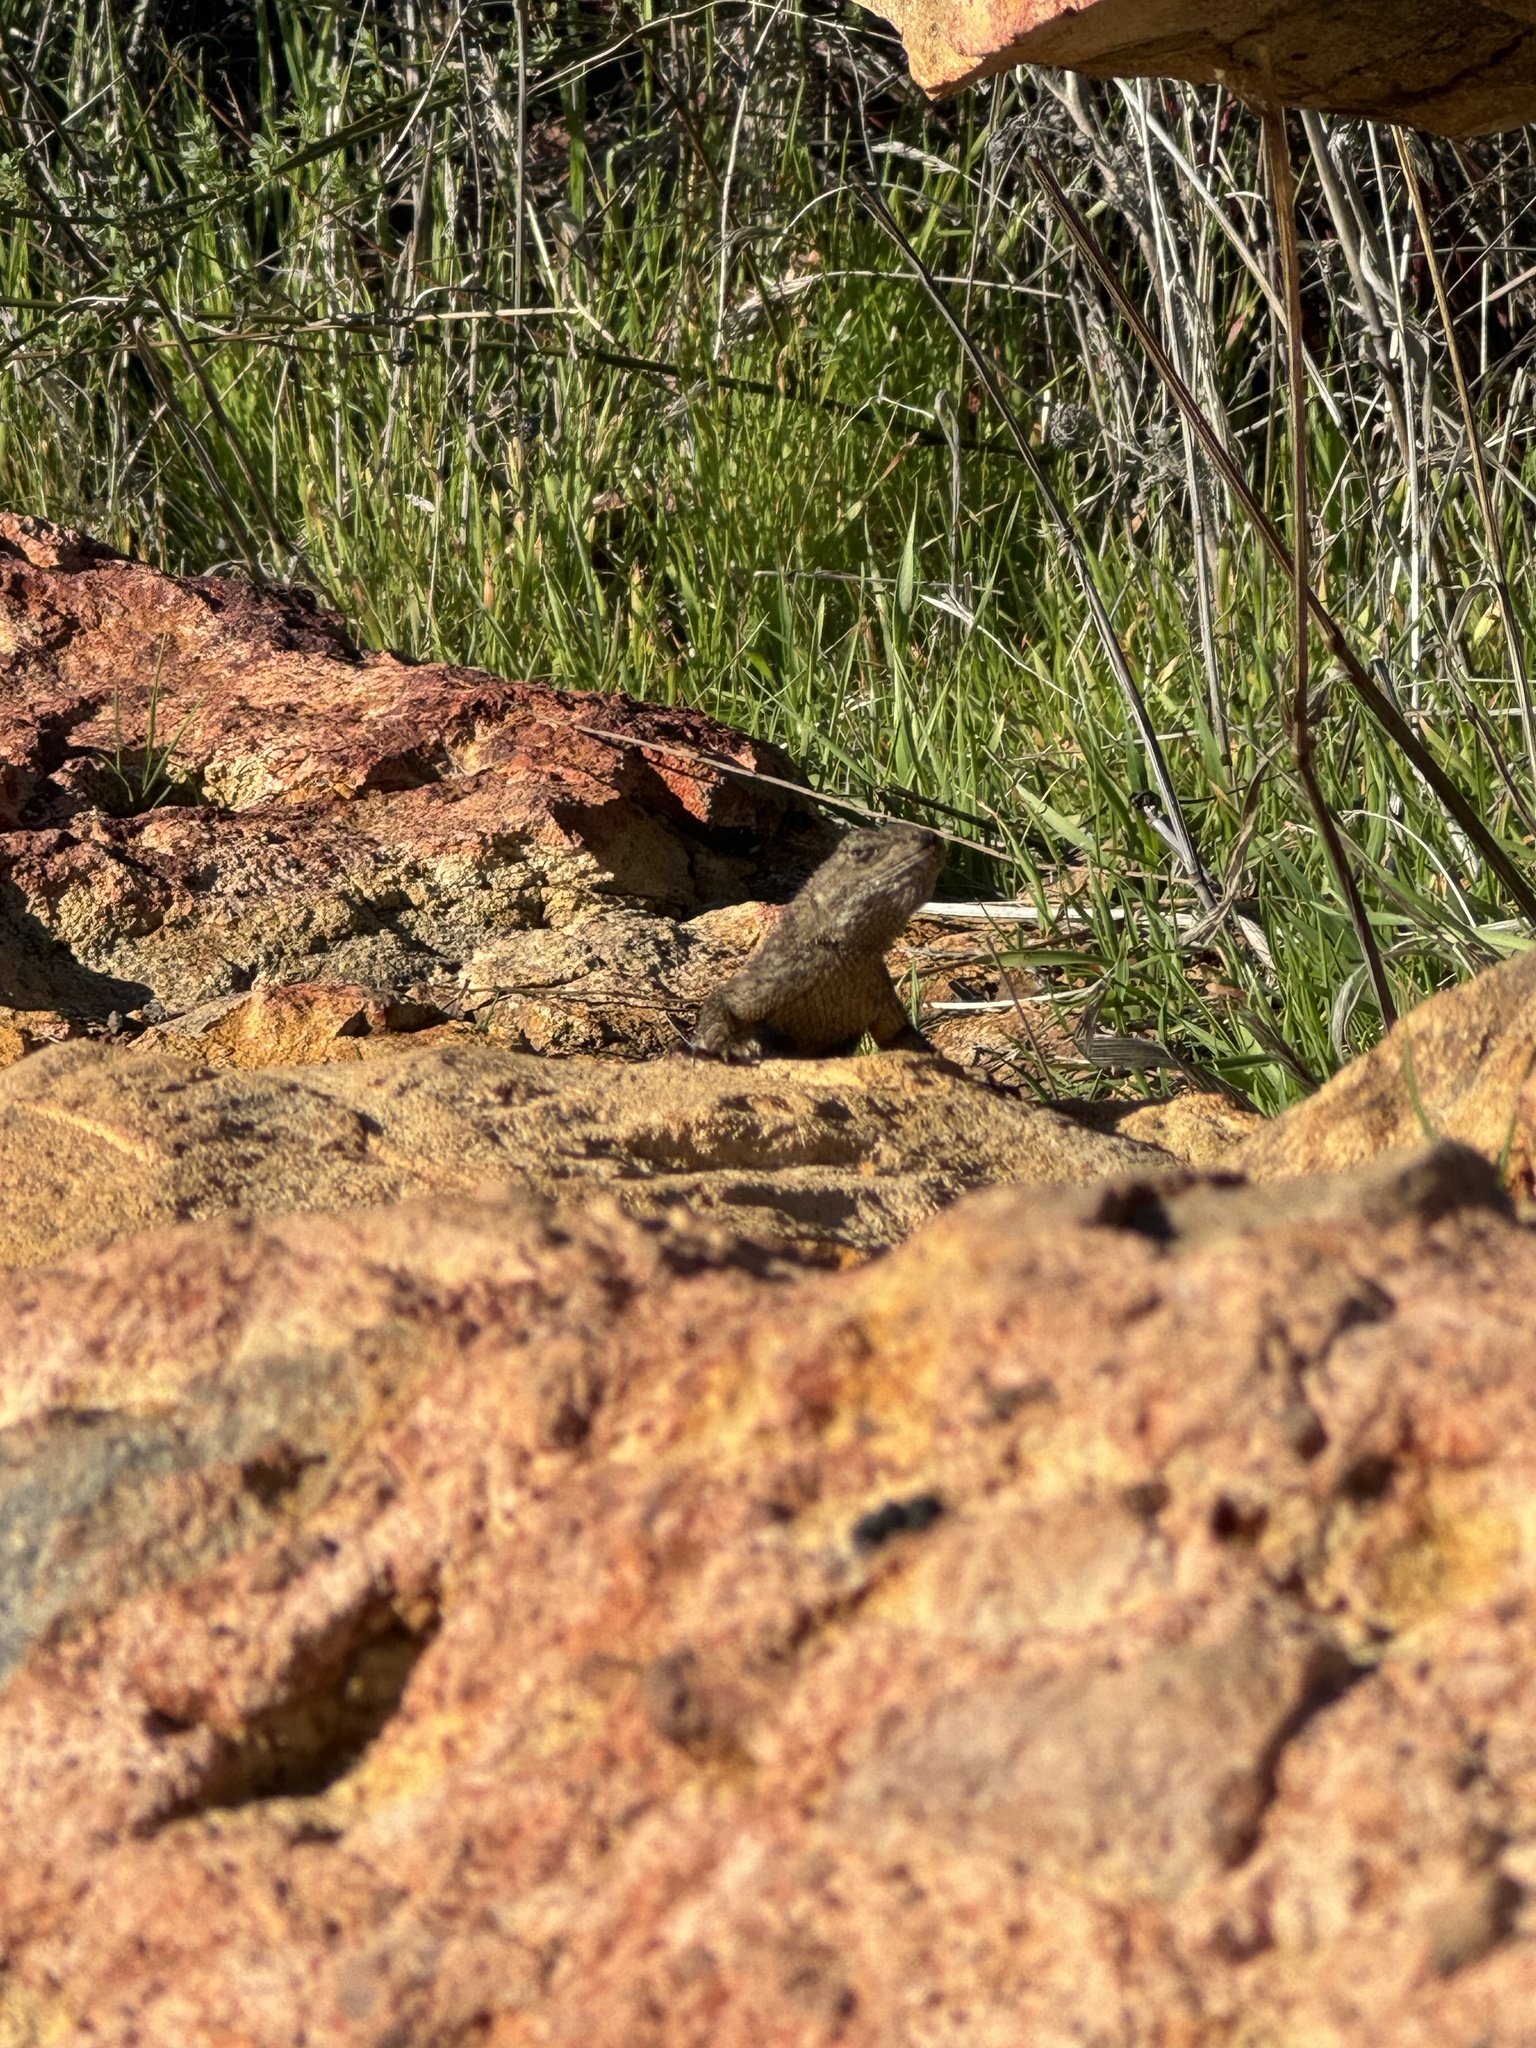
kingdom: Animalia
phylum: Chordata
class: Squamata
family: Phrynosomatidae
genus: Sceloporus
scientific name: Sceloporus occidentalis
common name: Western fence lizard
